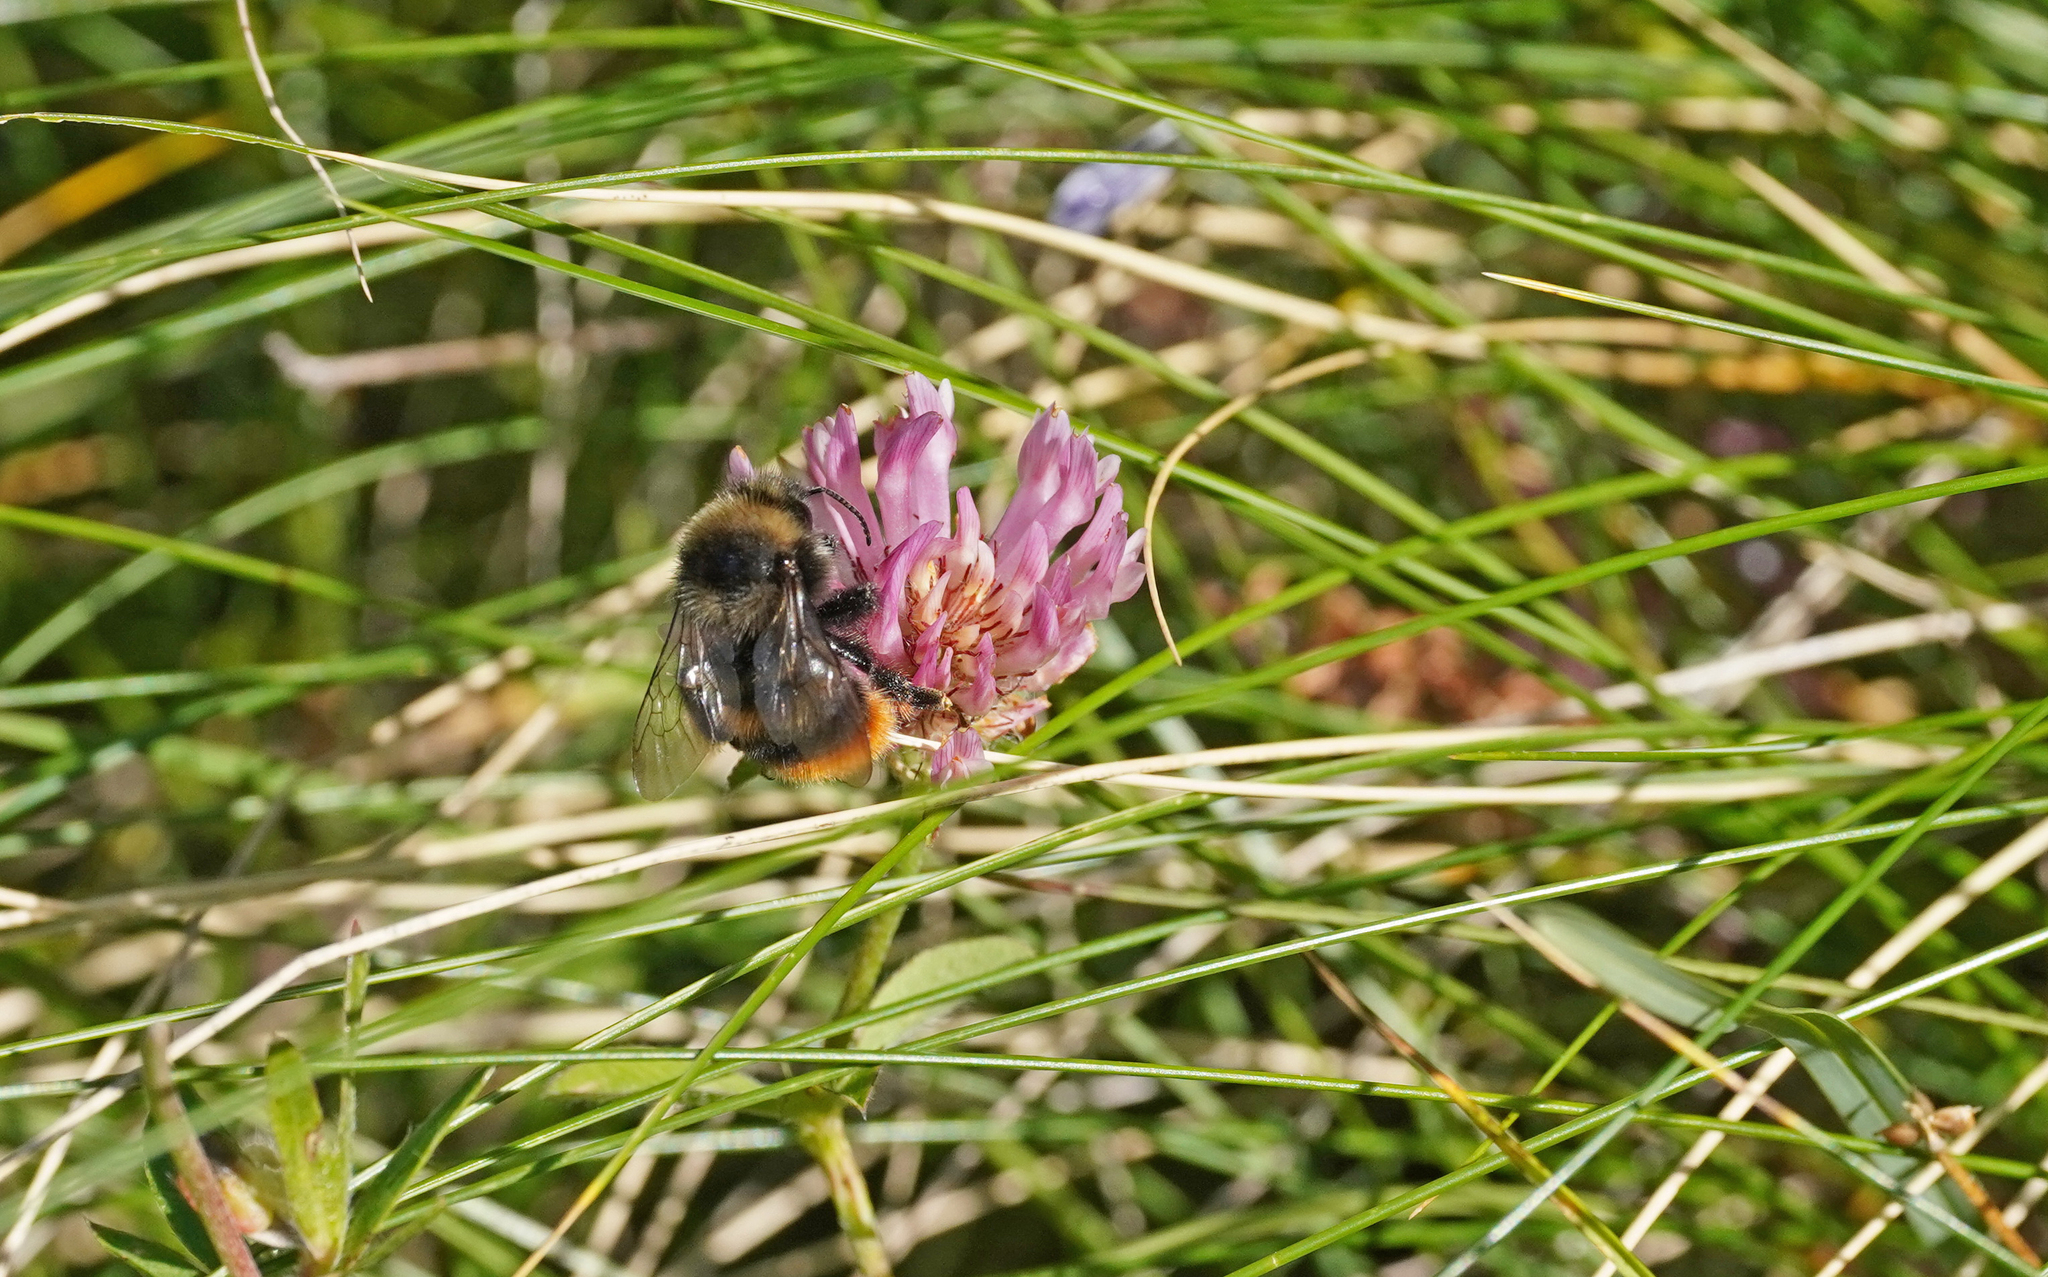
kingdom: Animalia
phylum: Arthropoda
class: Insecta
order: Hymenoptera
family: Apidae
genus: Bombus
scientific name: Bombus ruderarius
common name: Red-shanked carder-bee
